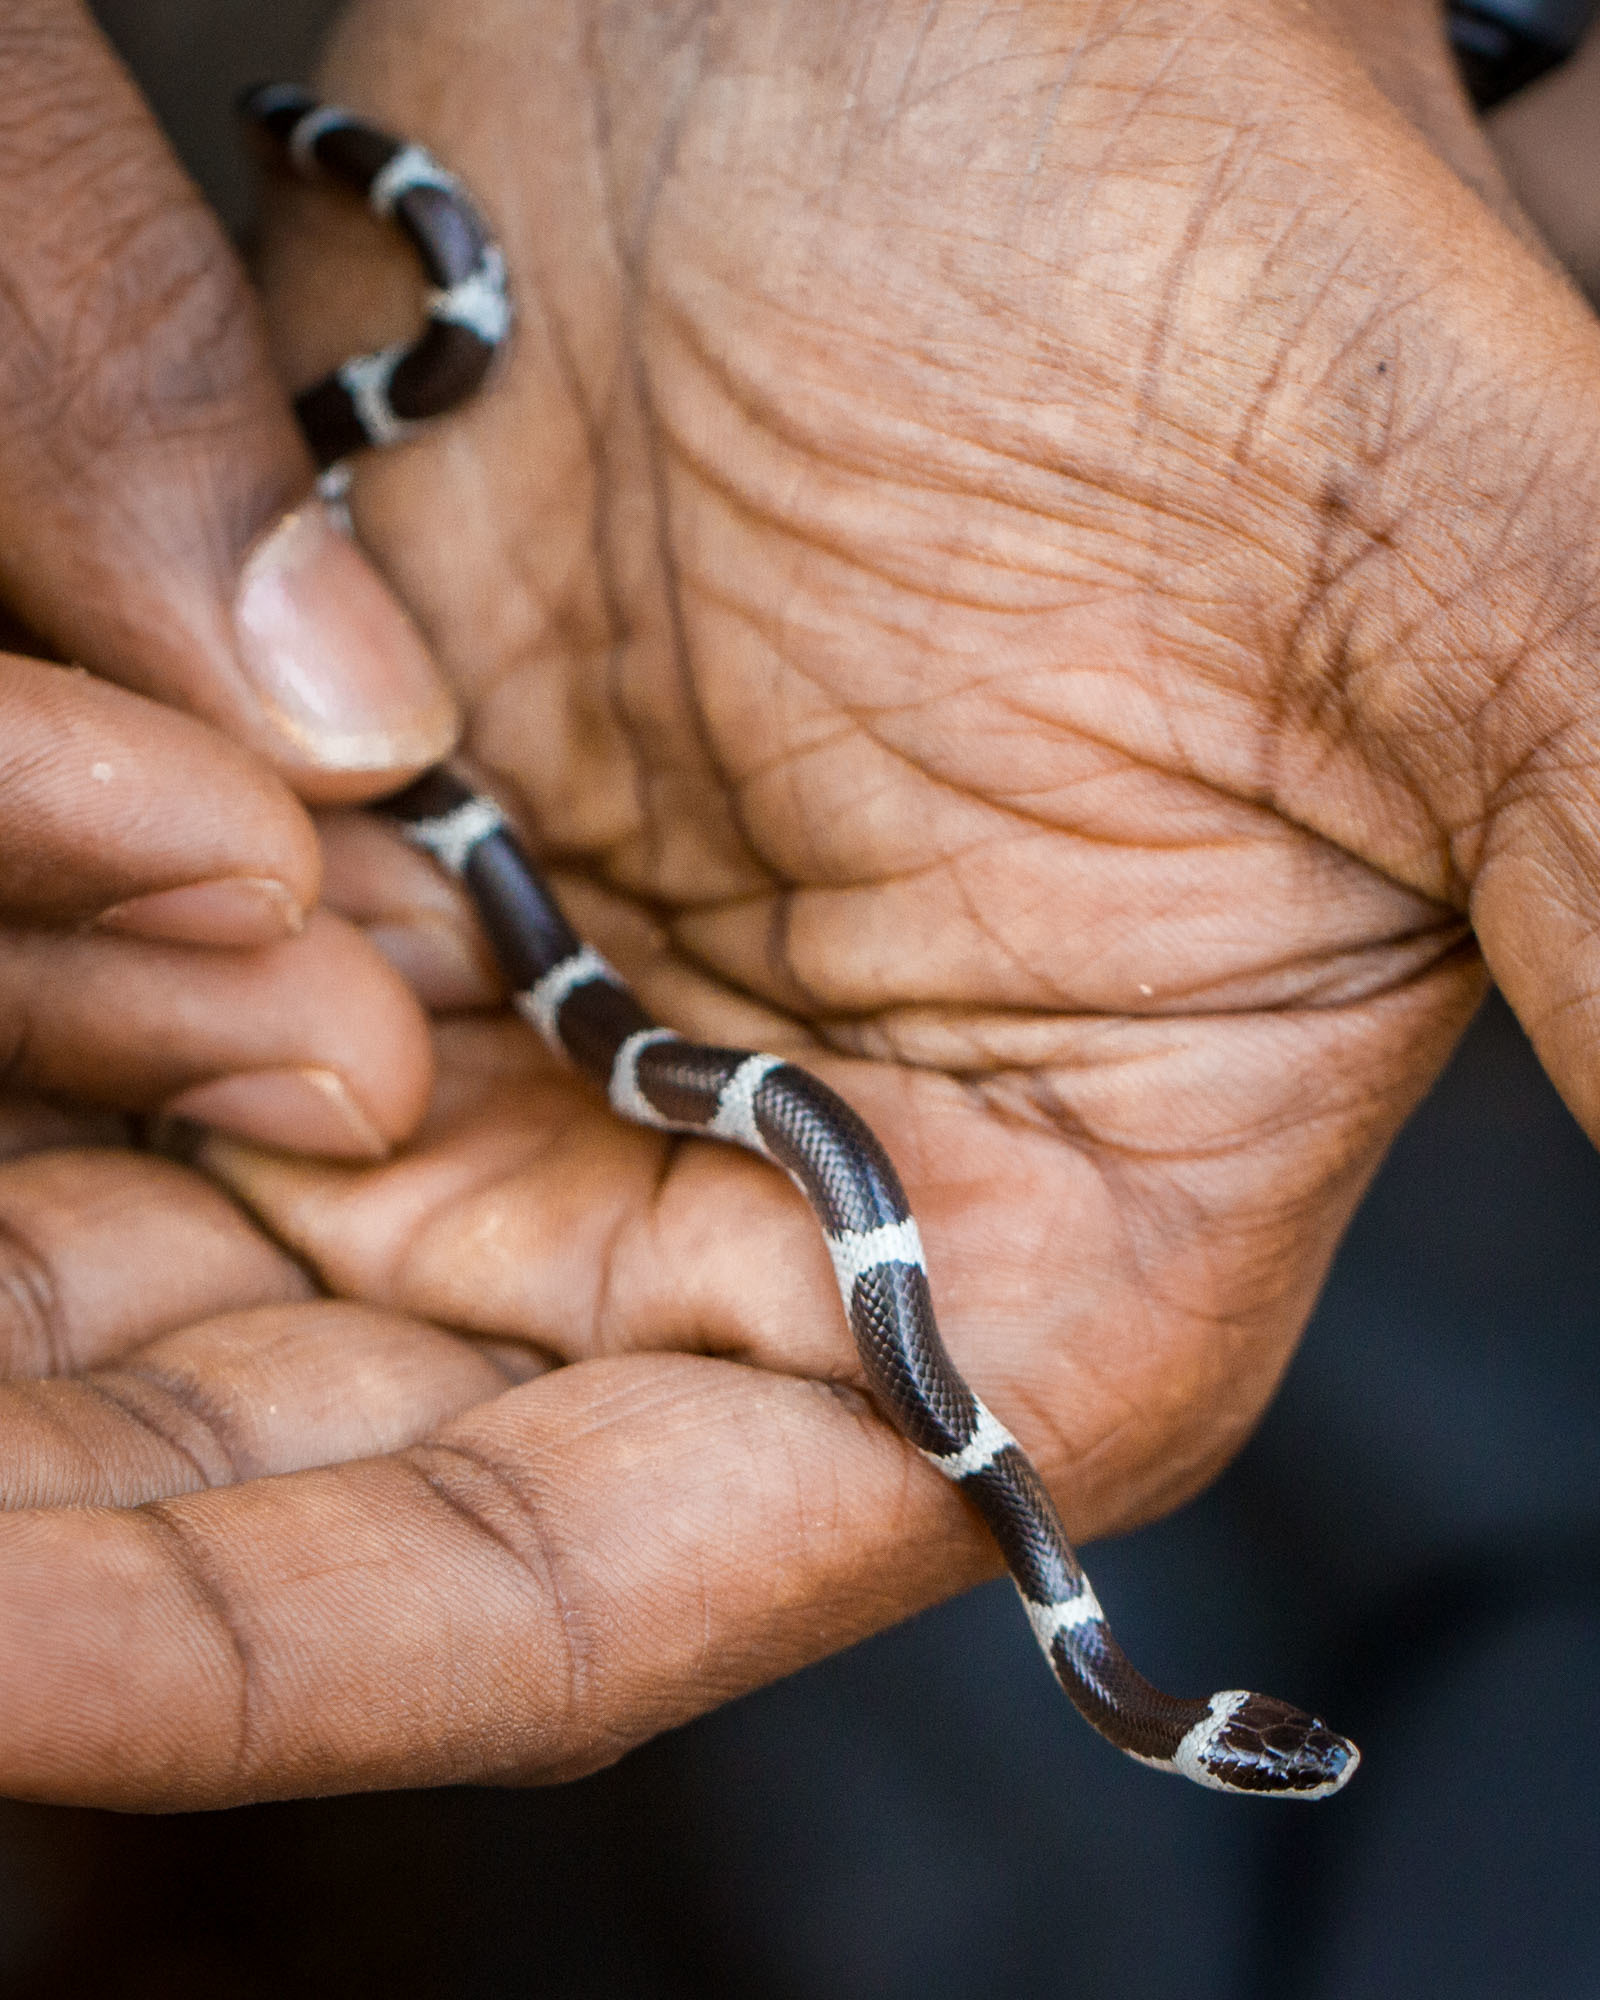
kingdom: Animalia
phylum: Chordata
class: Squamata
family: Colubridae
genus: Lycodon
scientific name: Lycodon aulicus
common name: Common wolf snake
